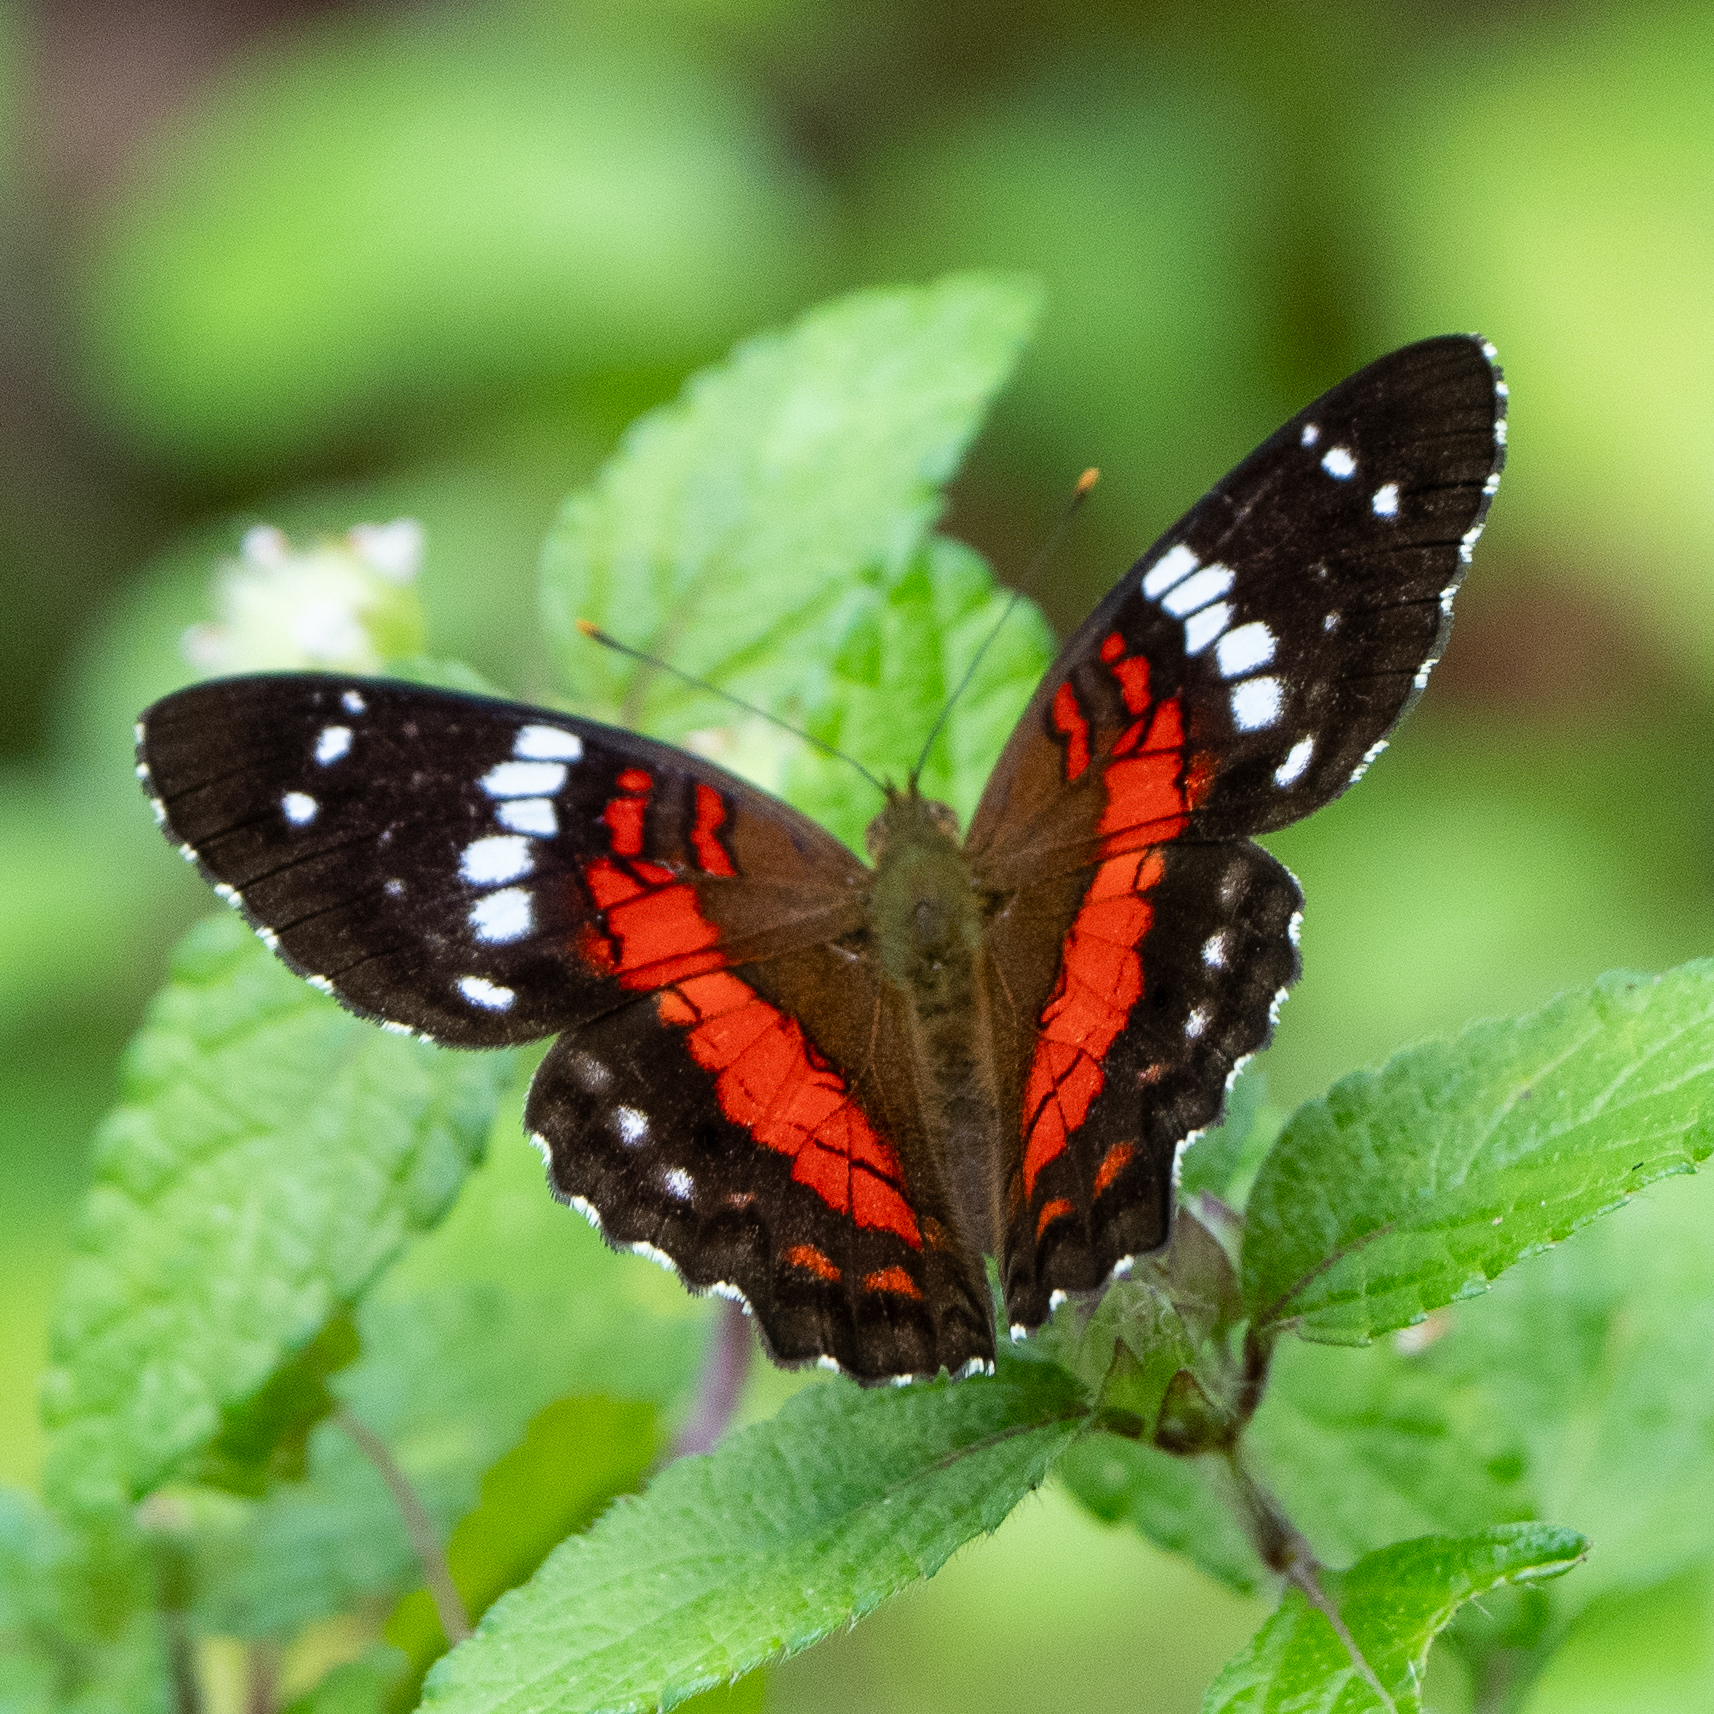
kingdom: Animalia
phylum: Arthropoda
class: Insecta
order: Lepidoptera
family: Nymphalidae
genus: Anartia
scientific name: Anartia amathea
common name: Red peacock
